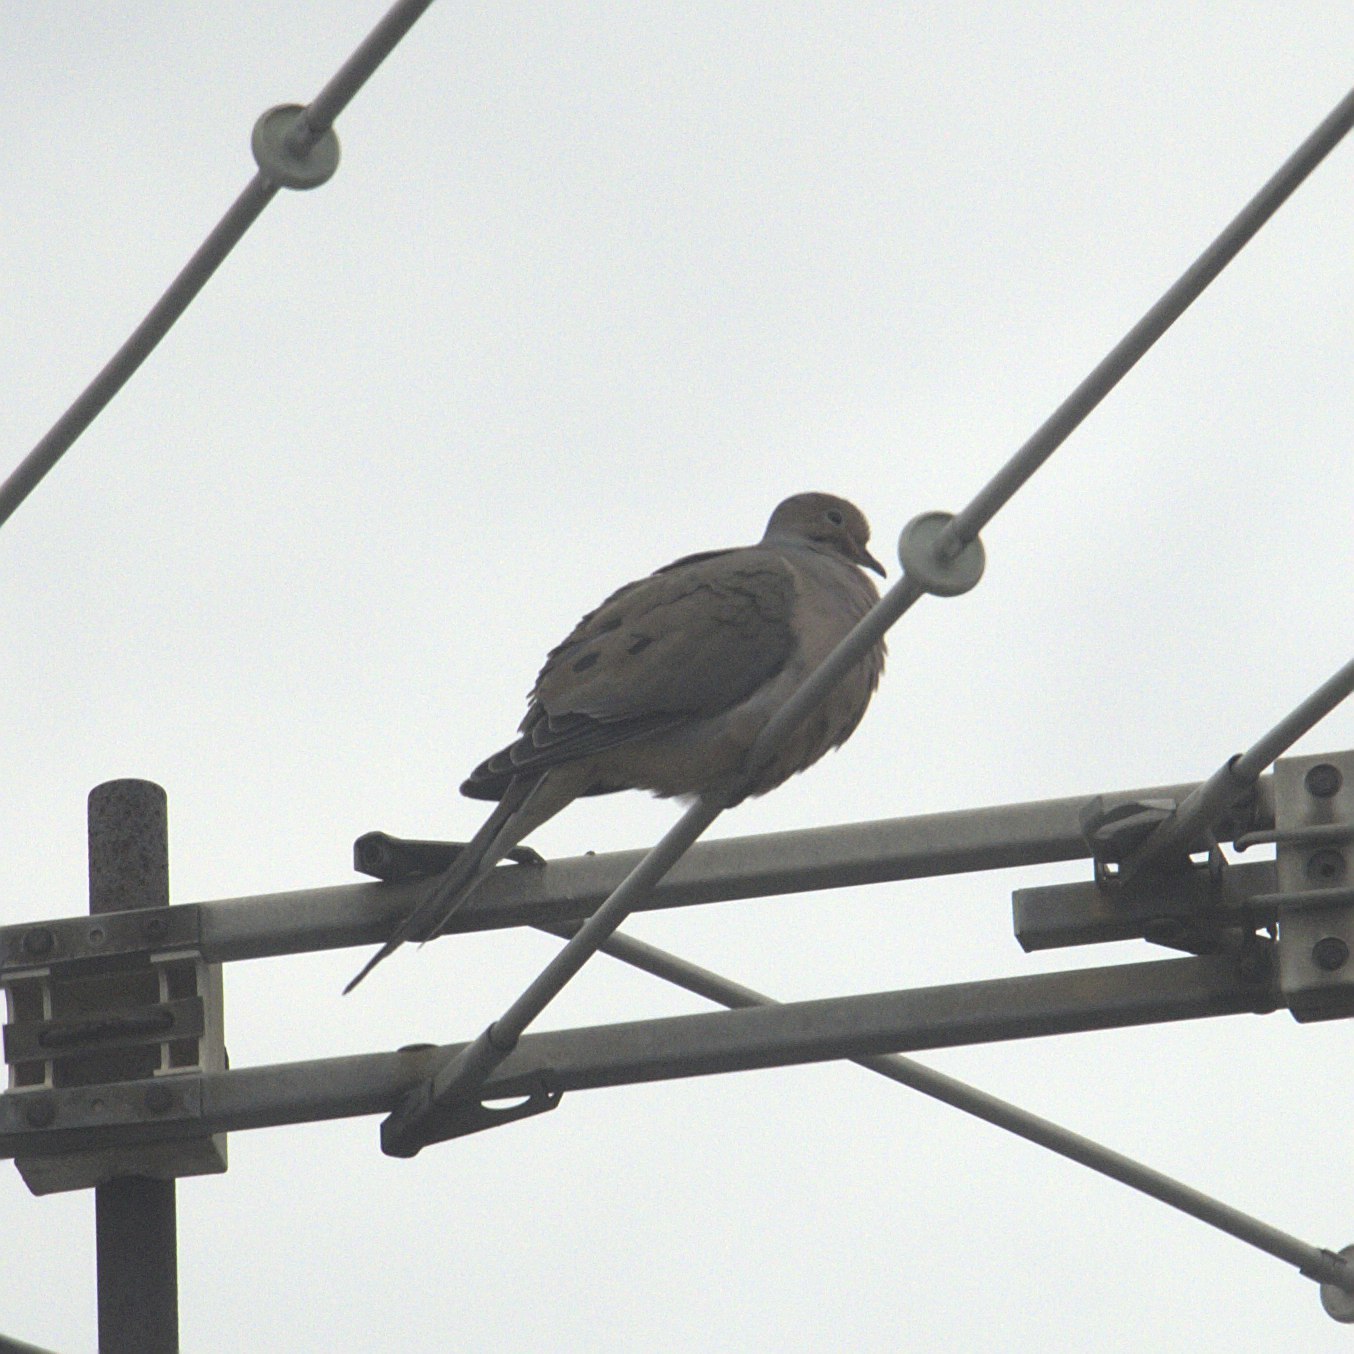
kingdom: Animalia
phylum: Chordata
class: Aves
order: Columbiformes
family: Columbidae
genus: Zenaida
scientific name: Zenaida macroura
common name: Mourning dove
